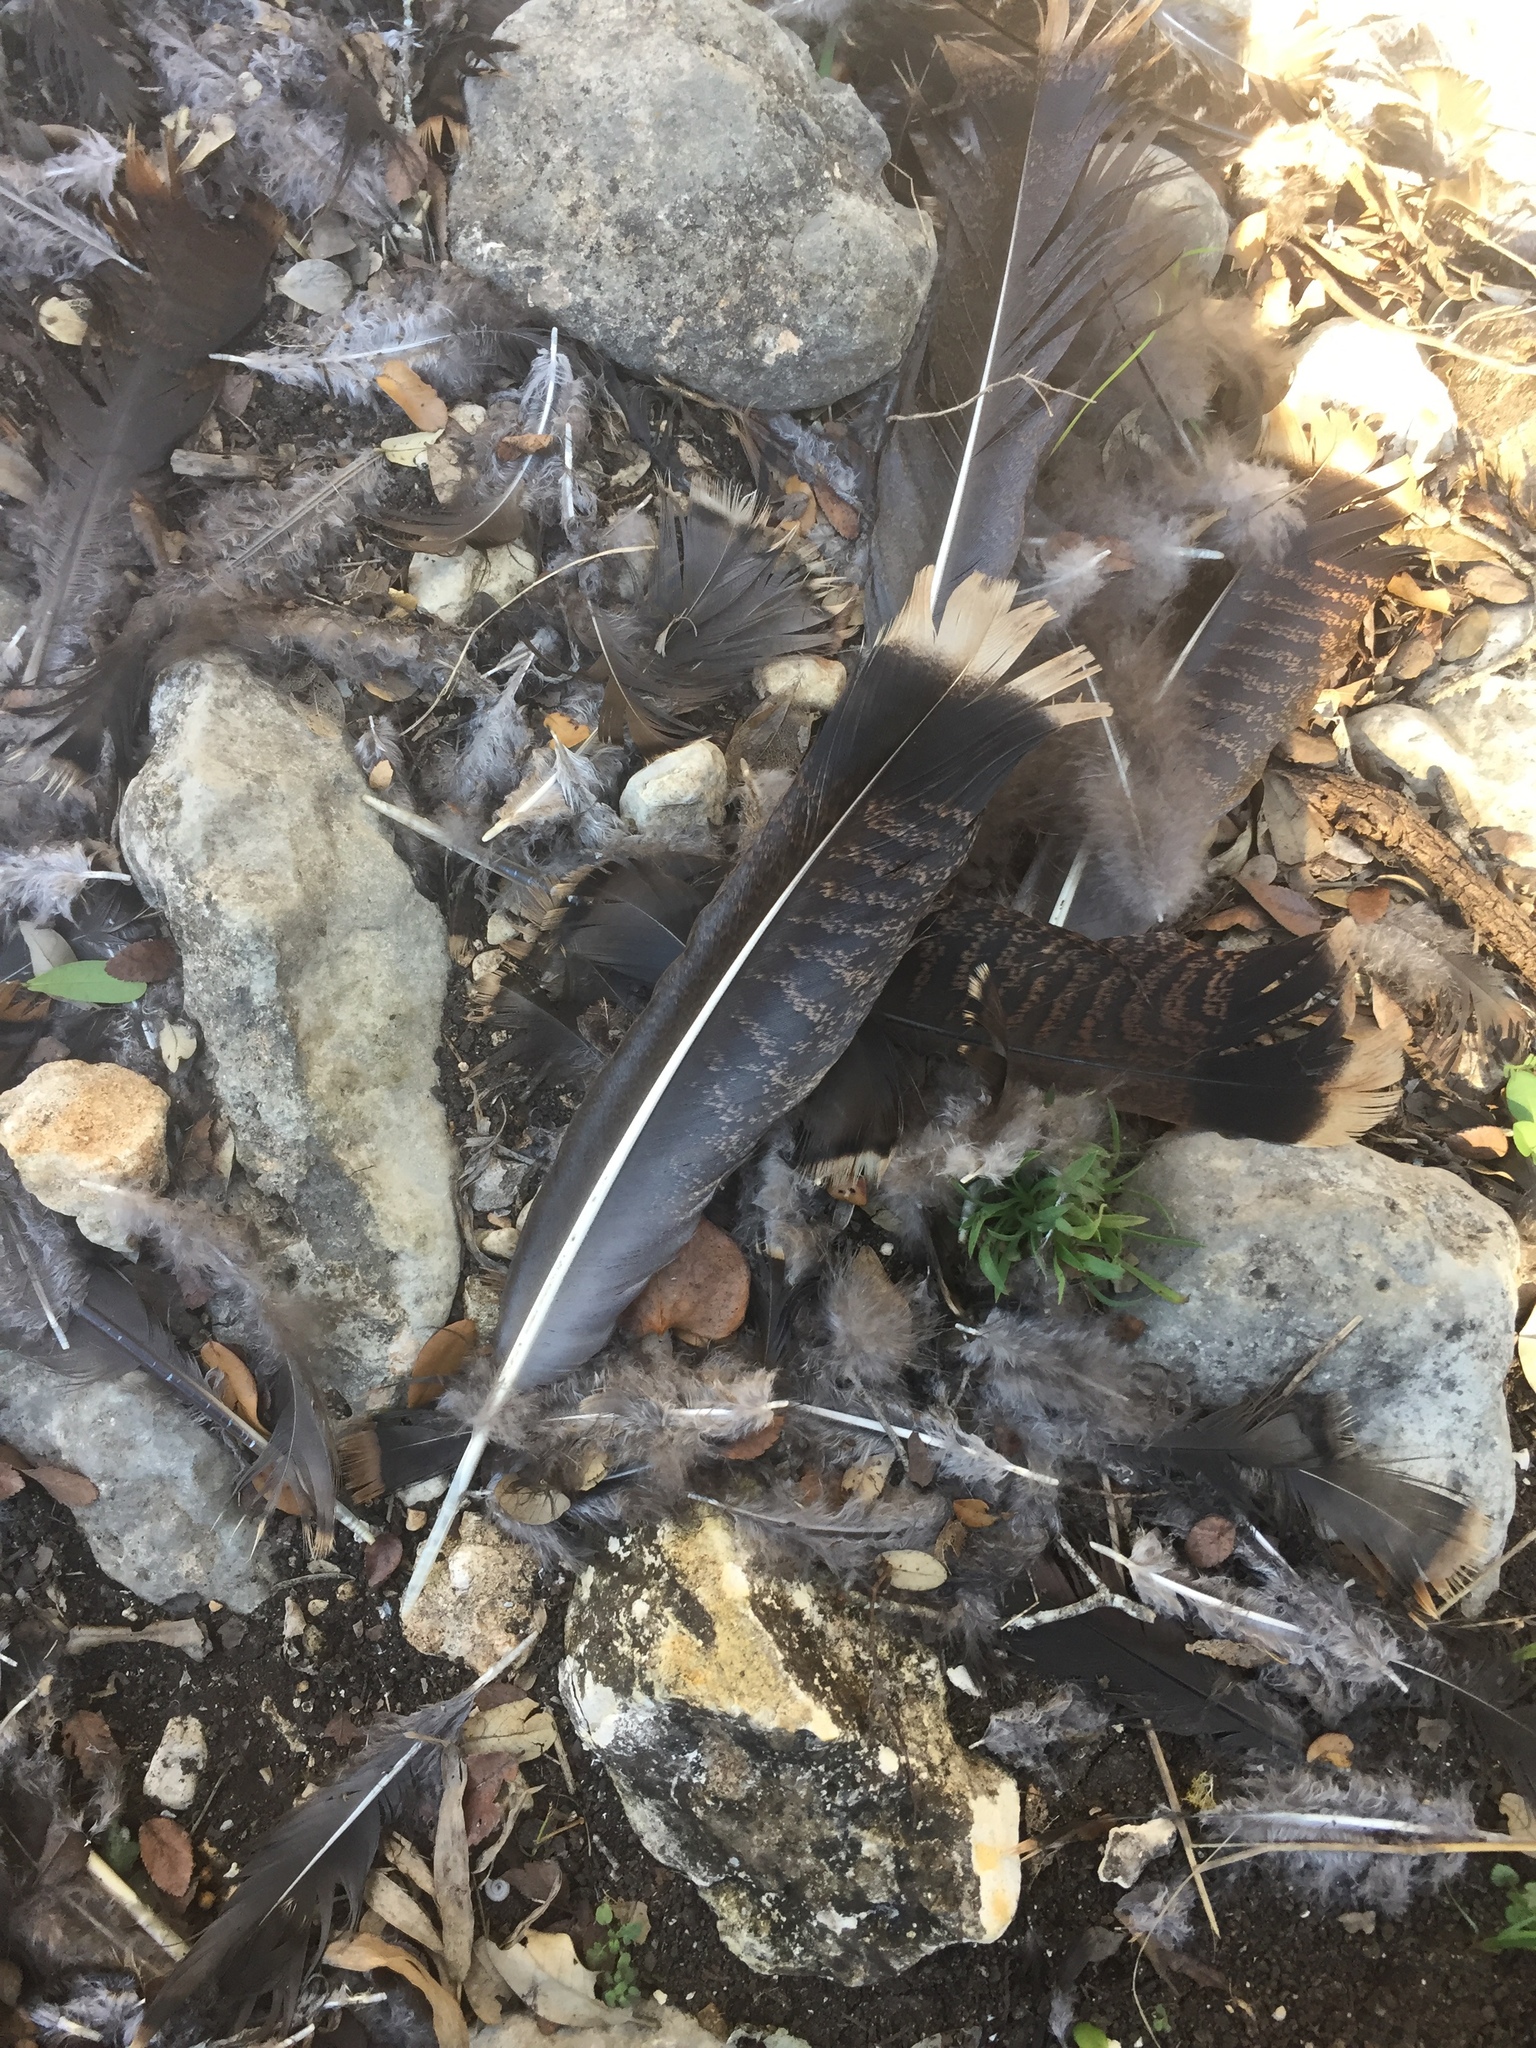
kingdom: Animalia
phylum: Chordata
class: Aves
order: Galliformes
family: Phasianidae
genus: Meleagris
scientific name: Meleagris gallopavo
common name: Wild turkey
